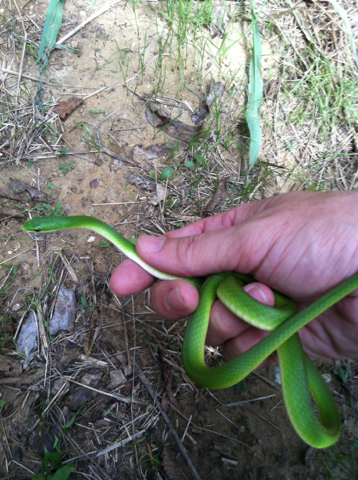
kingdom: Animalia
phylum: Chordata
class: Squamata
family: Colubridae
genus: Opheodrys
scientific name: Opheodrys aestivus
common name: Rough greensnake
